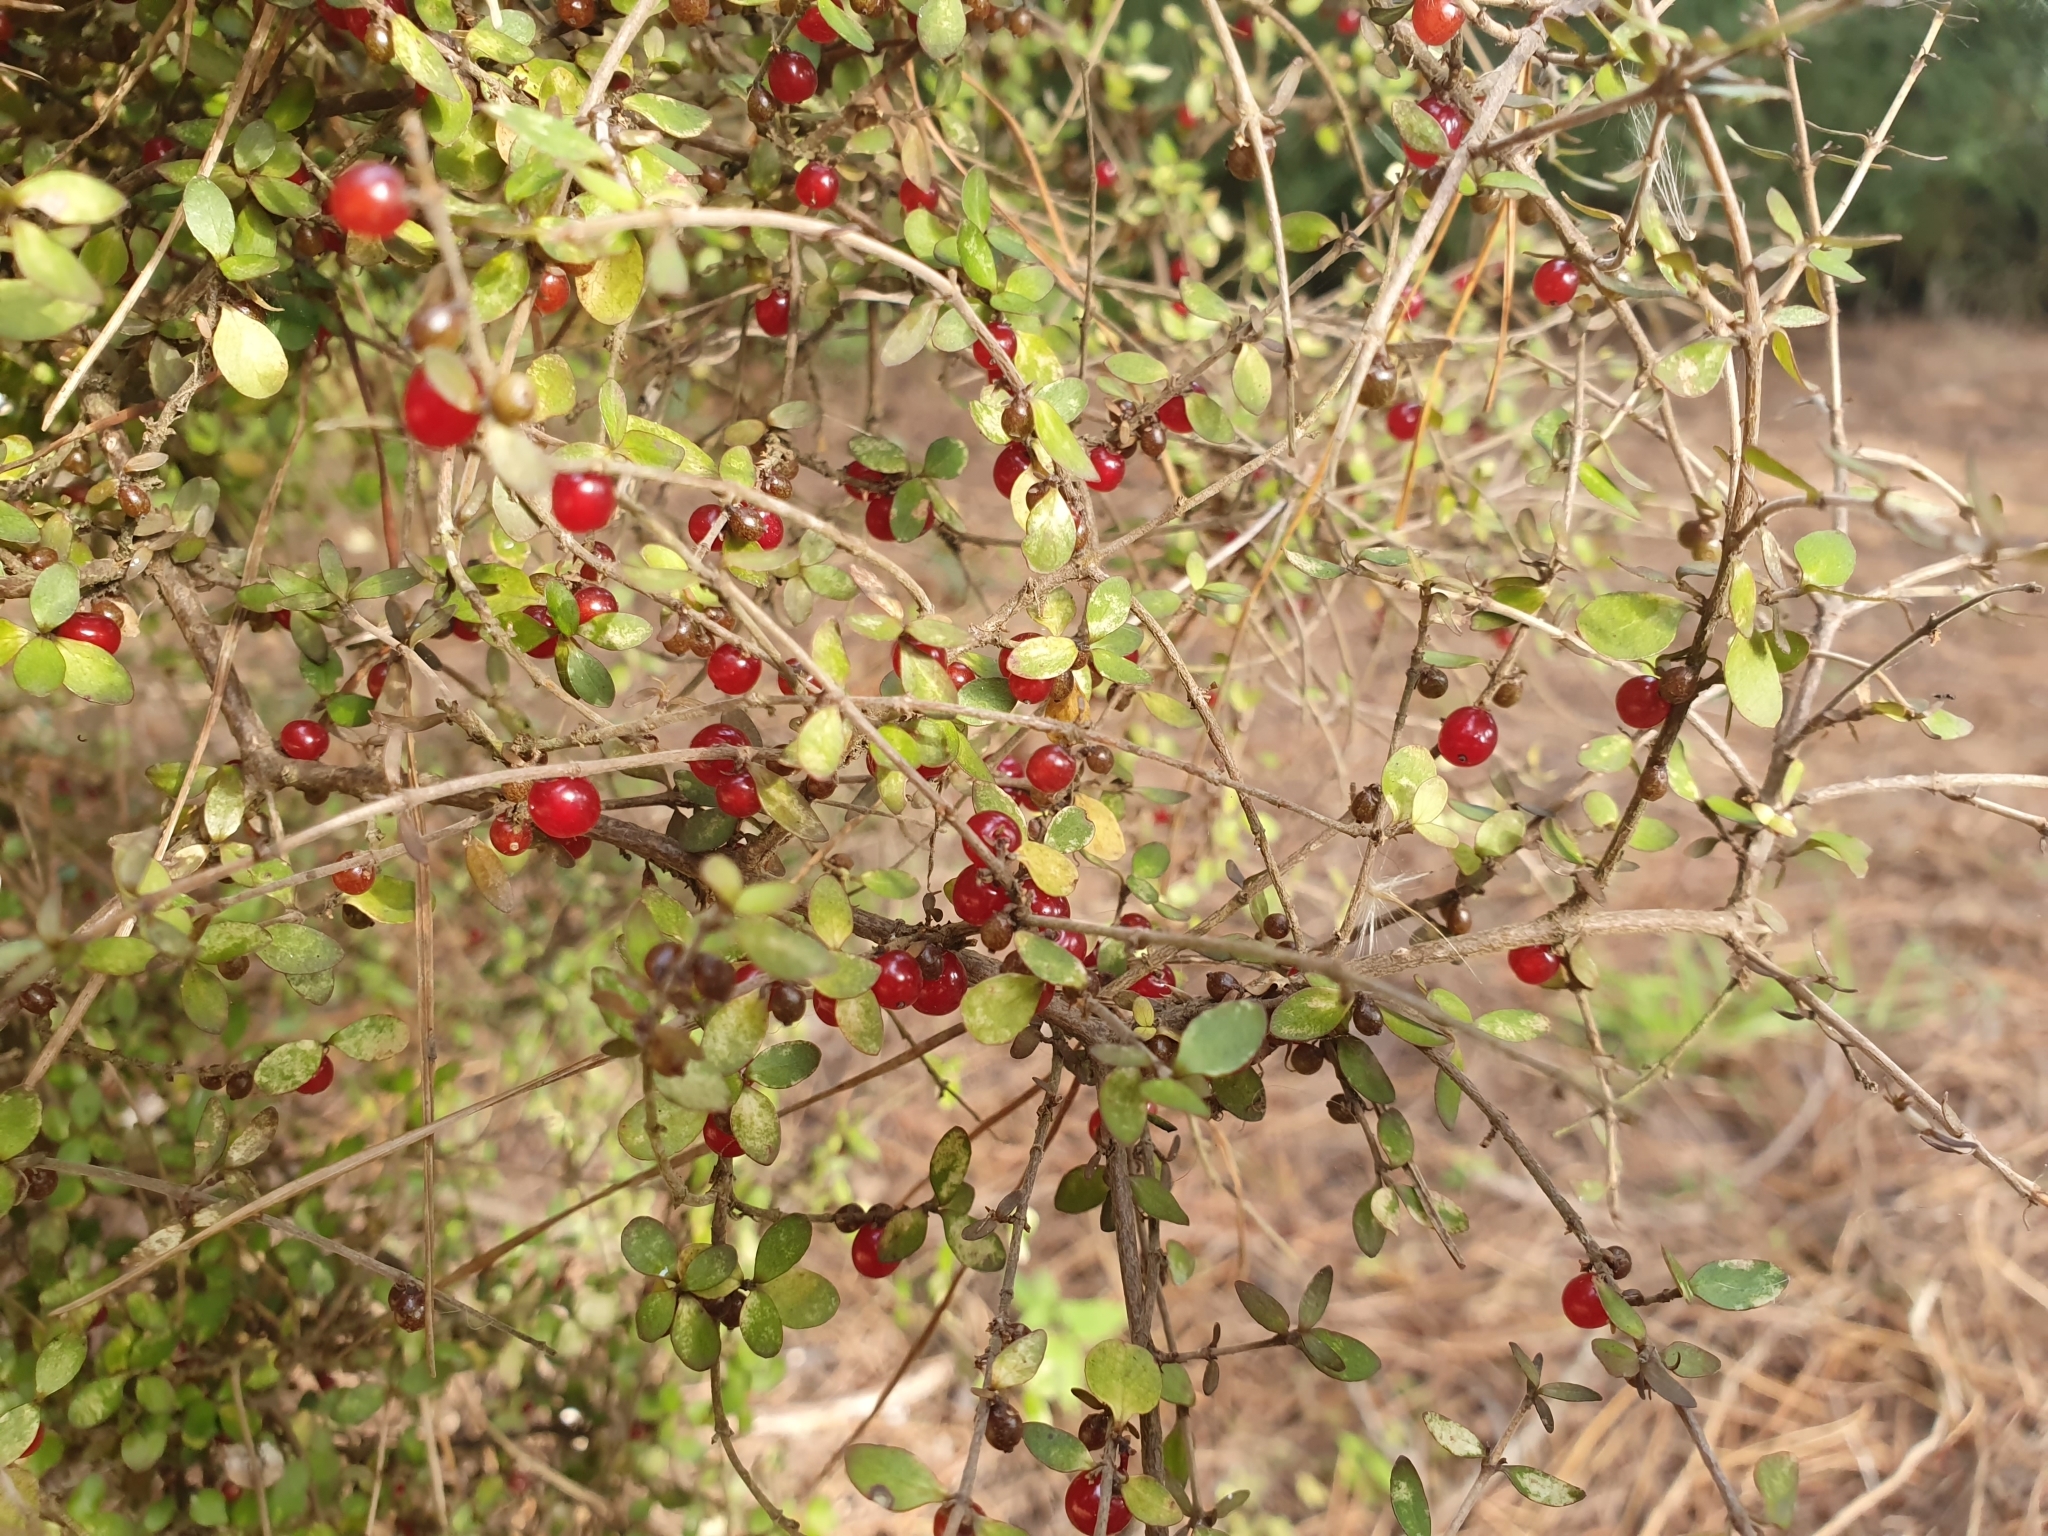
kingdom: Plantae
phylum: Tracheophyta
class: Magnoliopsida
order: Gentianales
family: Rubiaceae
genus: Coprosma
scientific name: Coprosma rhamnoides
